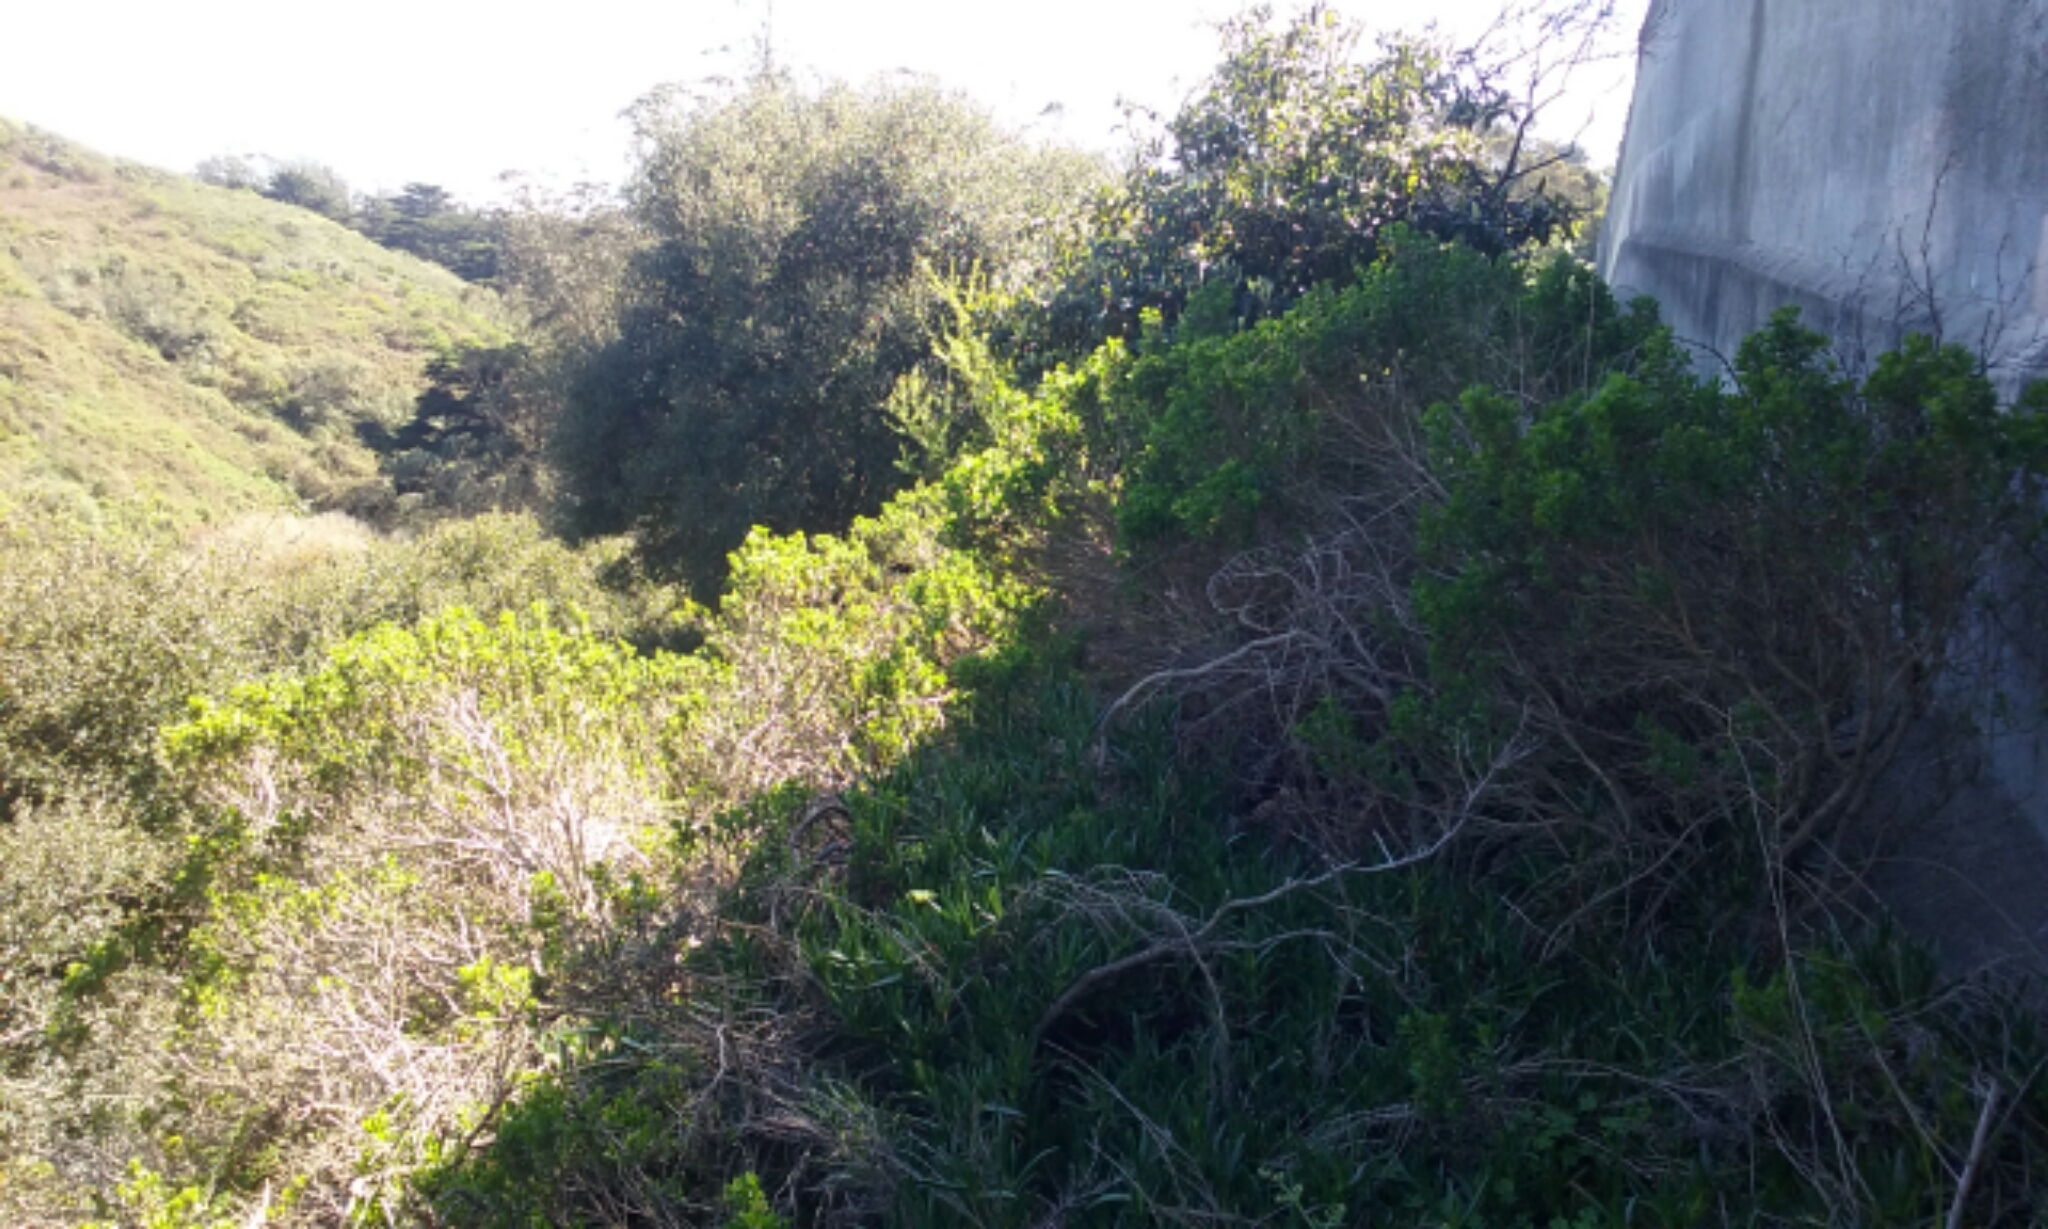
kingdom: Plantae
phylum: Tracheophyta
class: Magnoliopsida
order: Asterales
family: Asteraceae
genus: Baccharis
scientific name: Baccharis pilularis
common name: Coyotebrush
